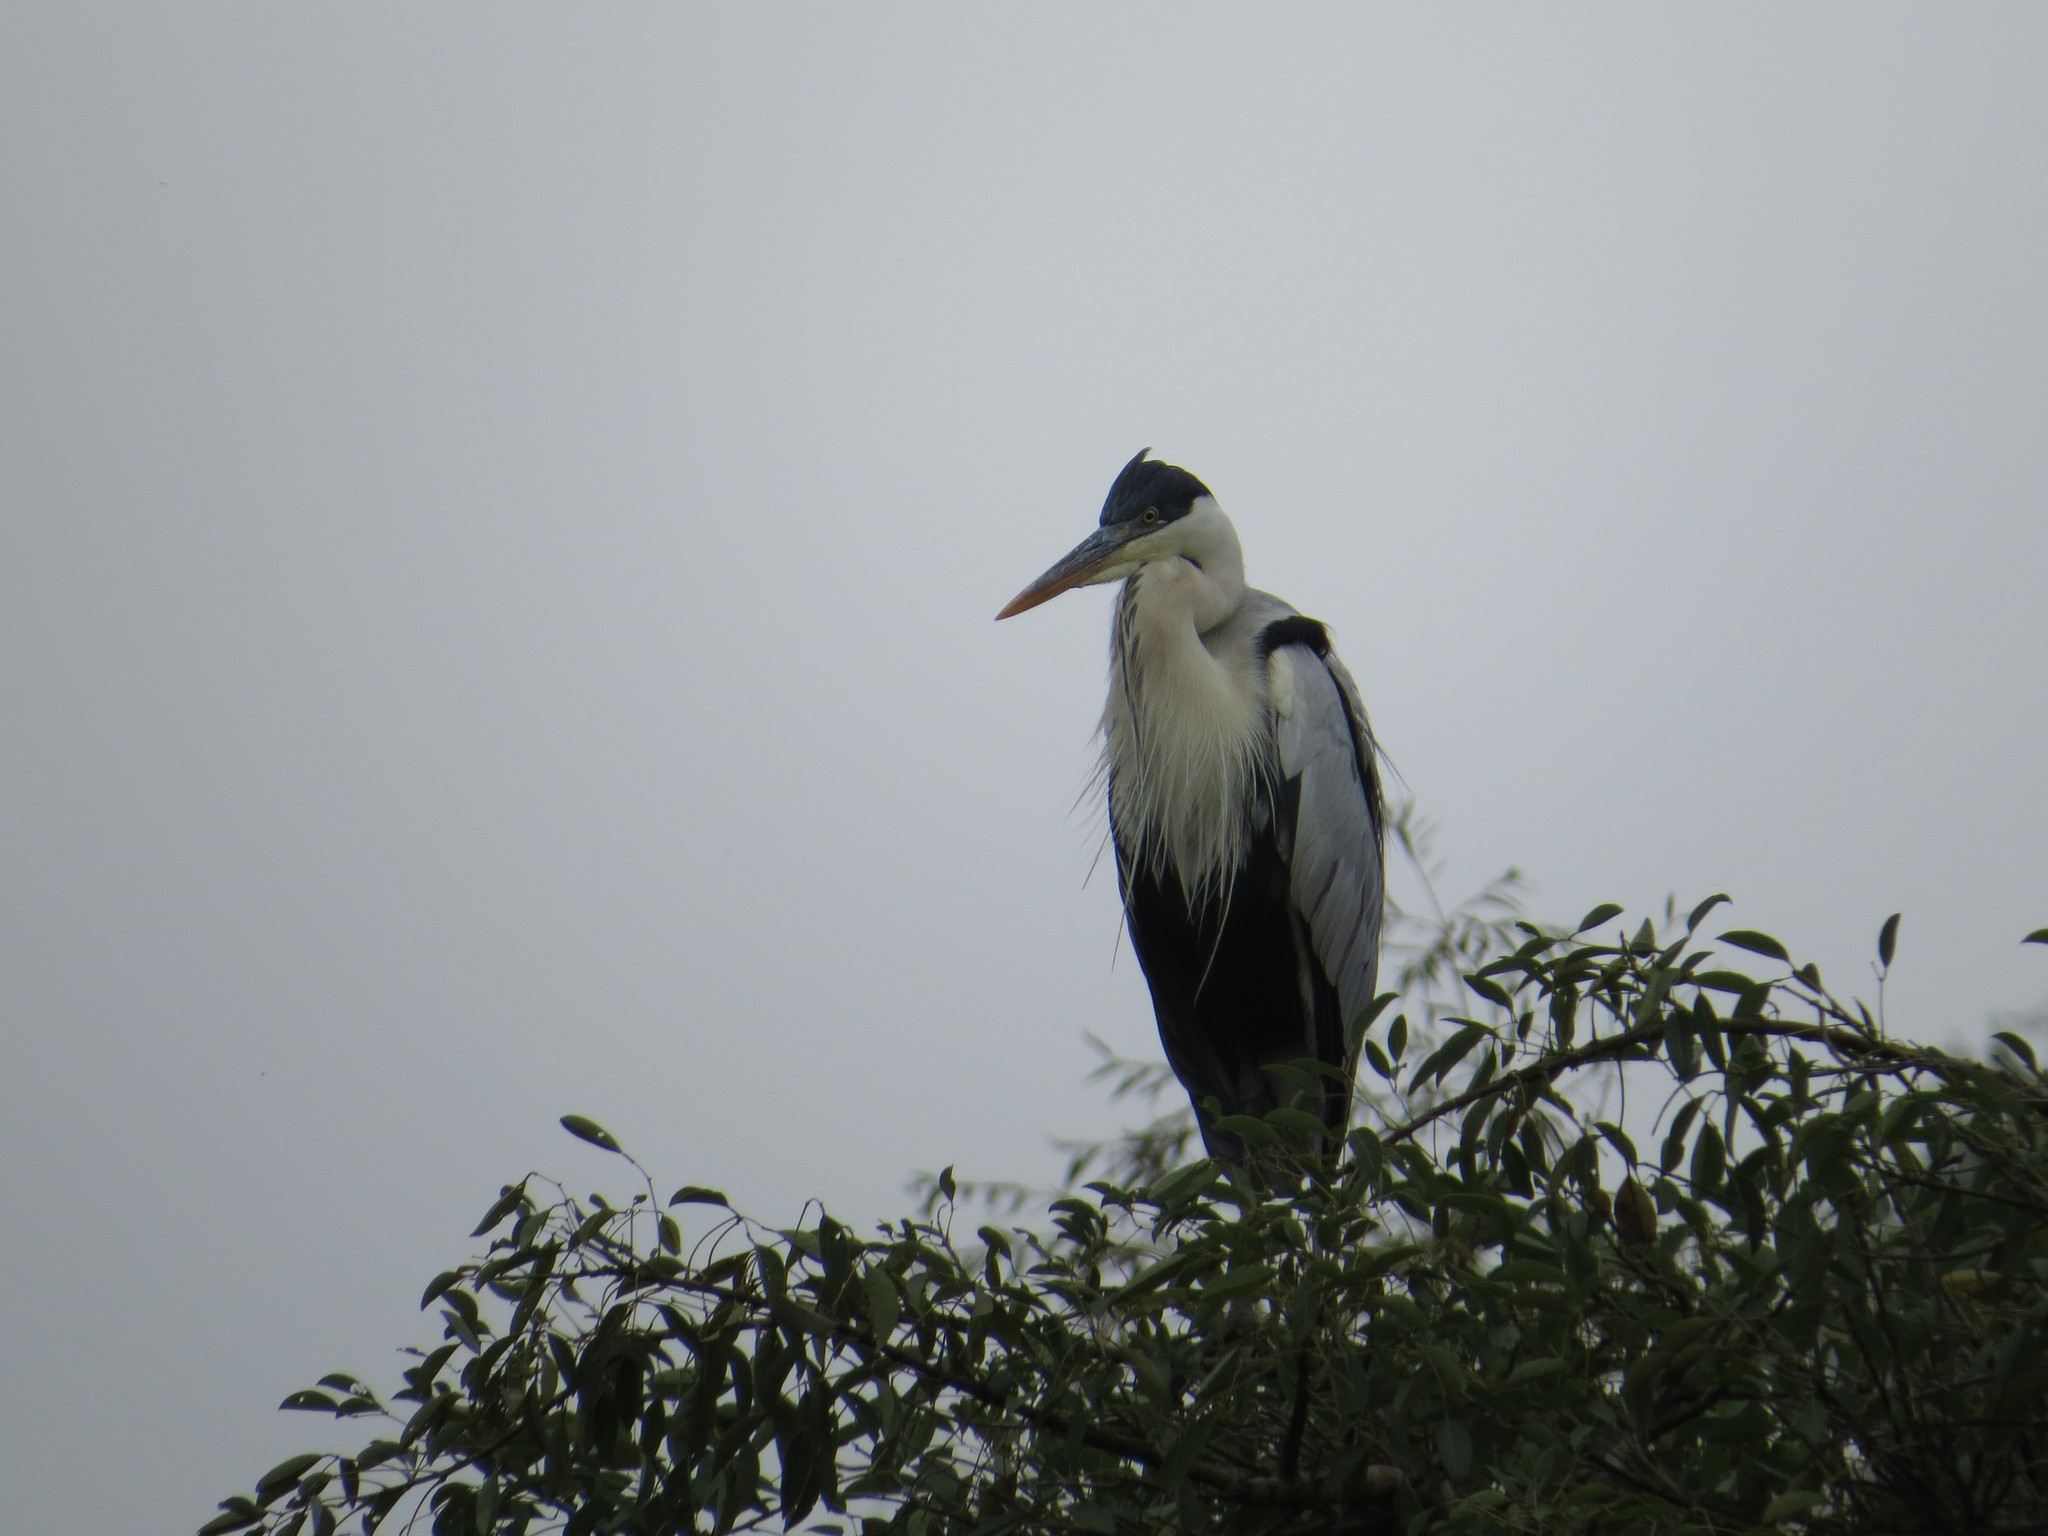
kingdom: Animalia
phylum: Chordata
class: Aves
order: Pelecaniformes
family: Ardeidae
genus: Ardea
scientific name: Ardea cocoi
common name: Cocoi heron
